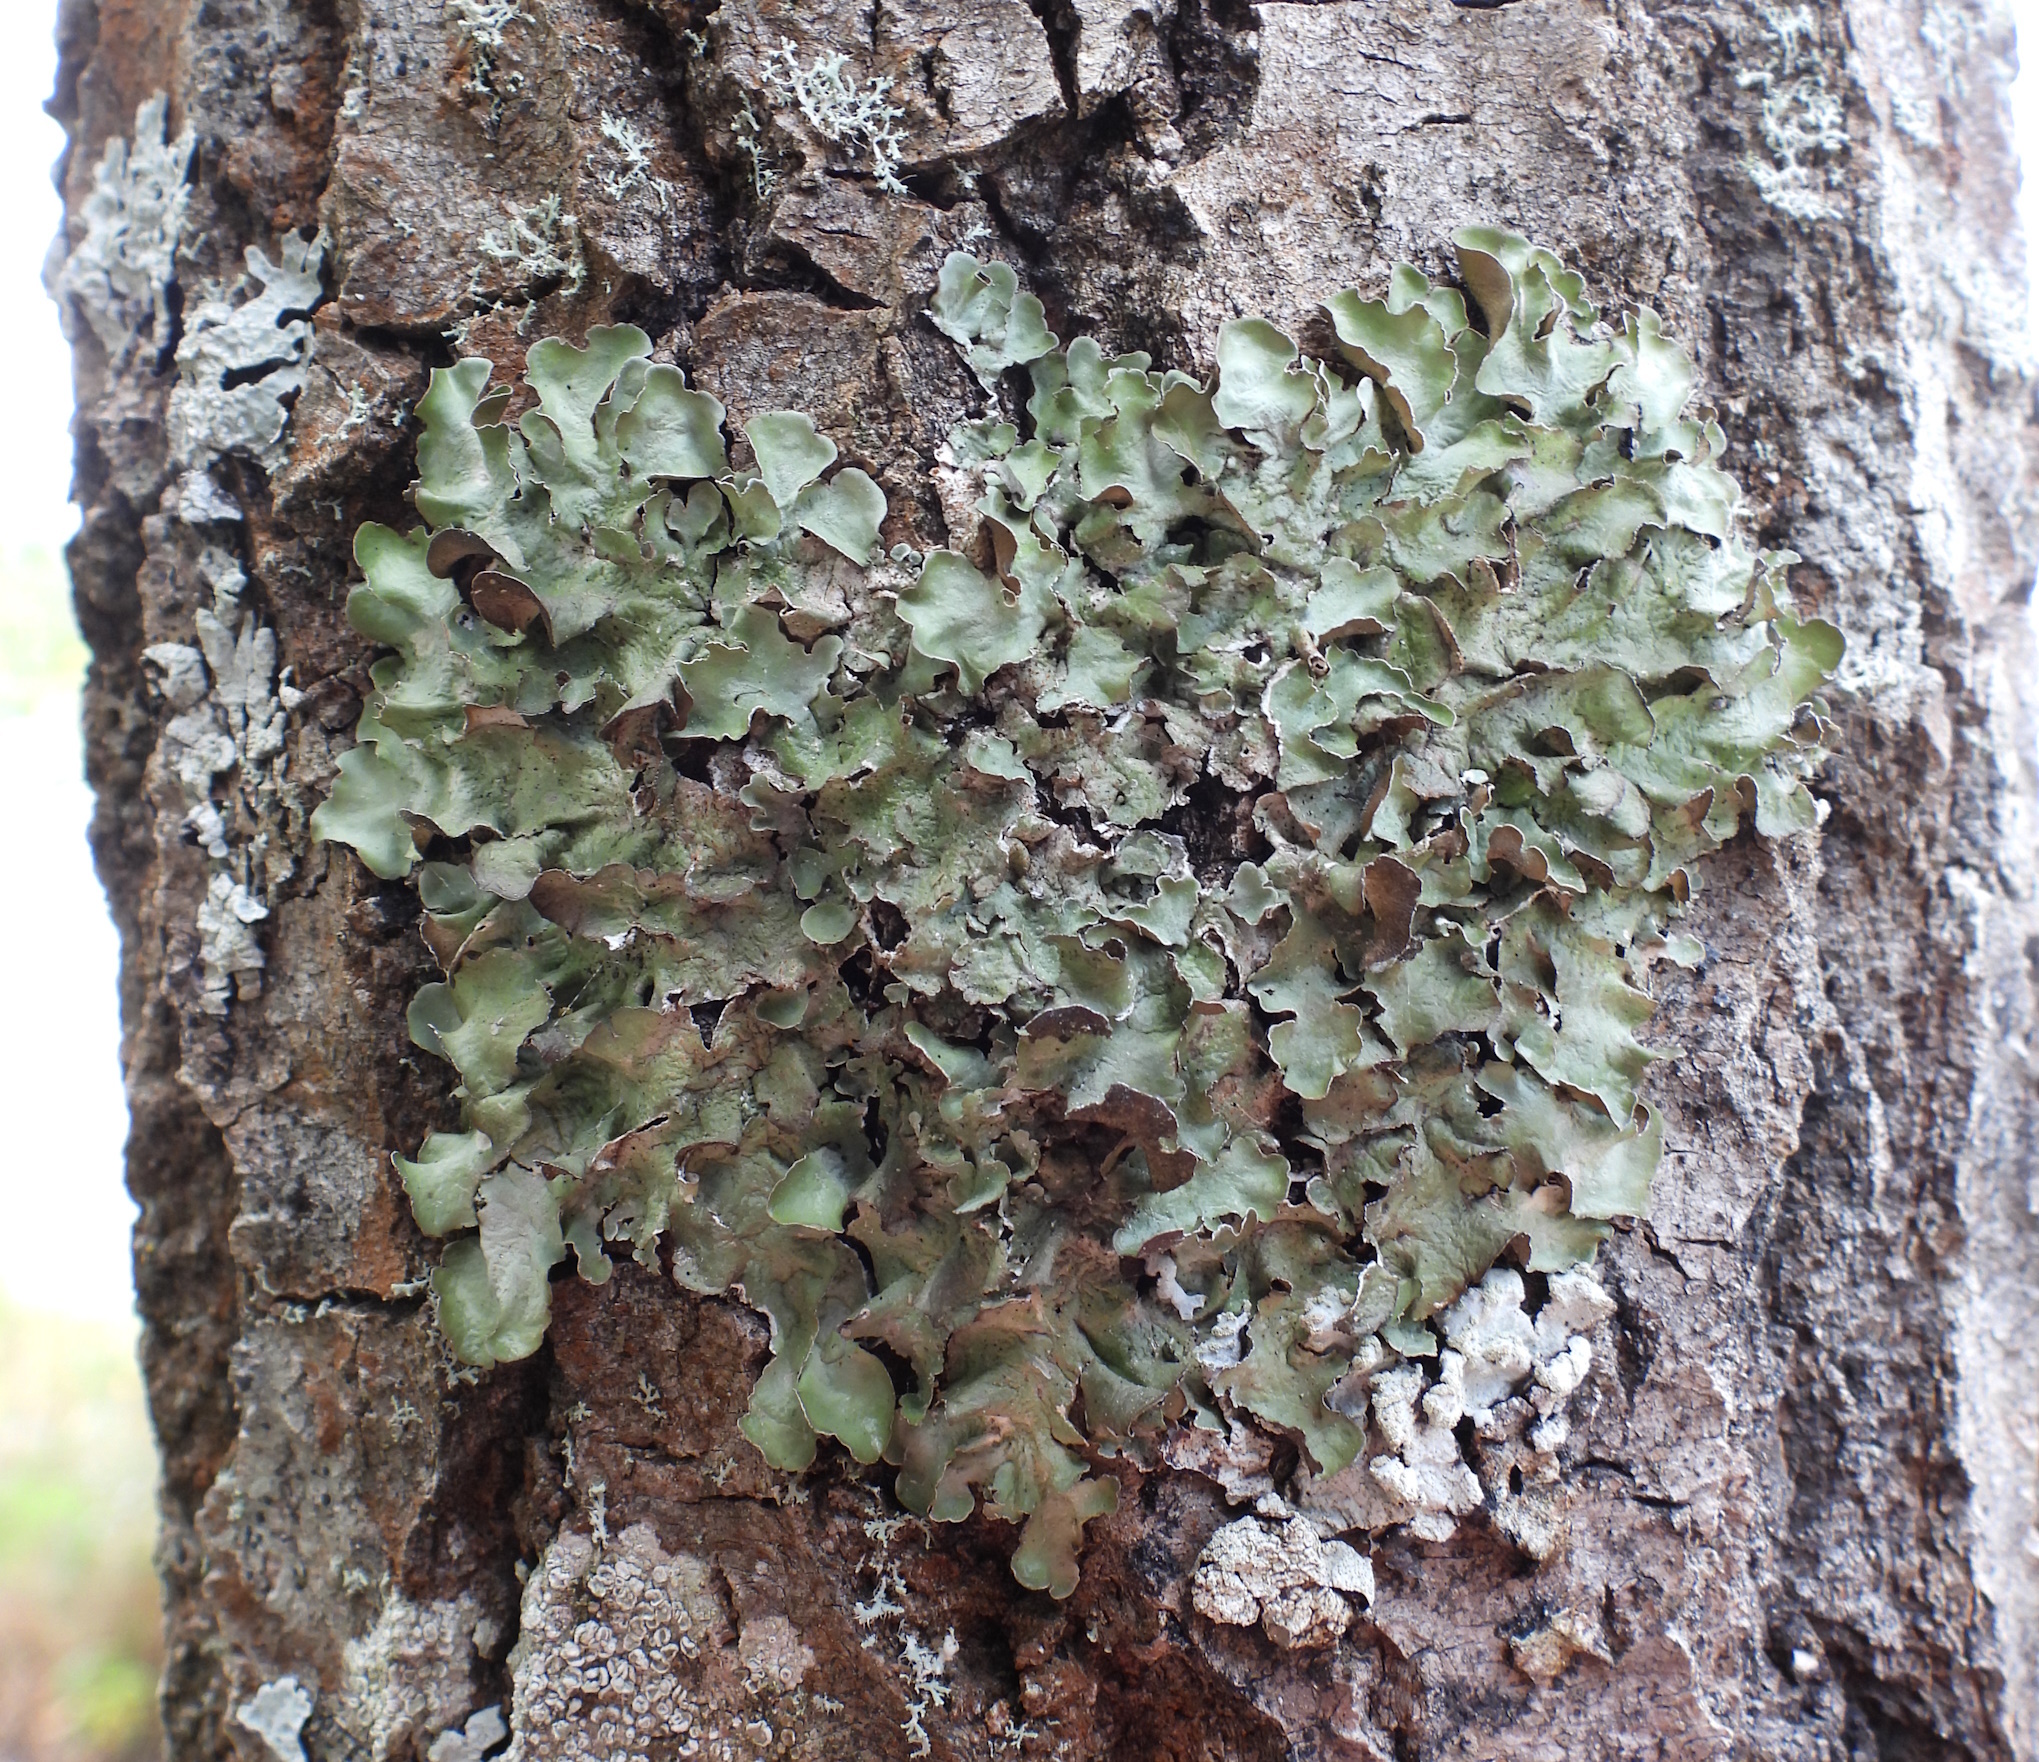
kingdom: Fungi
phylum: Ascomycota
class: Lecanoromycetes
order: Lecanorales
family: Parmeliaceae
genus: Pleurosticta
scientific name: Pleurosticta acetabulum
